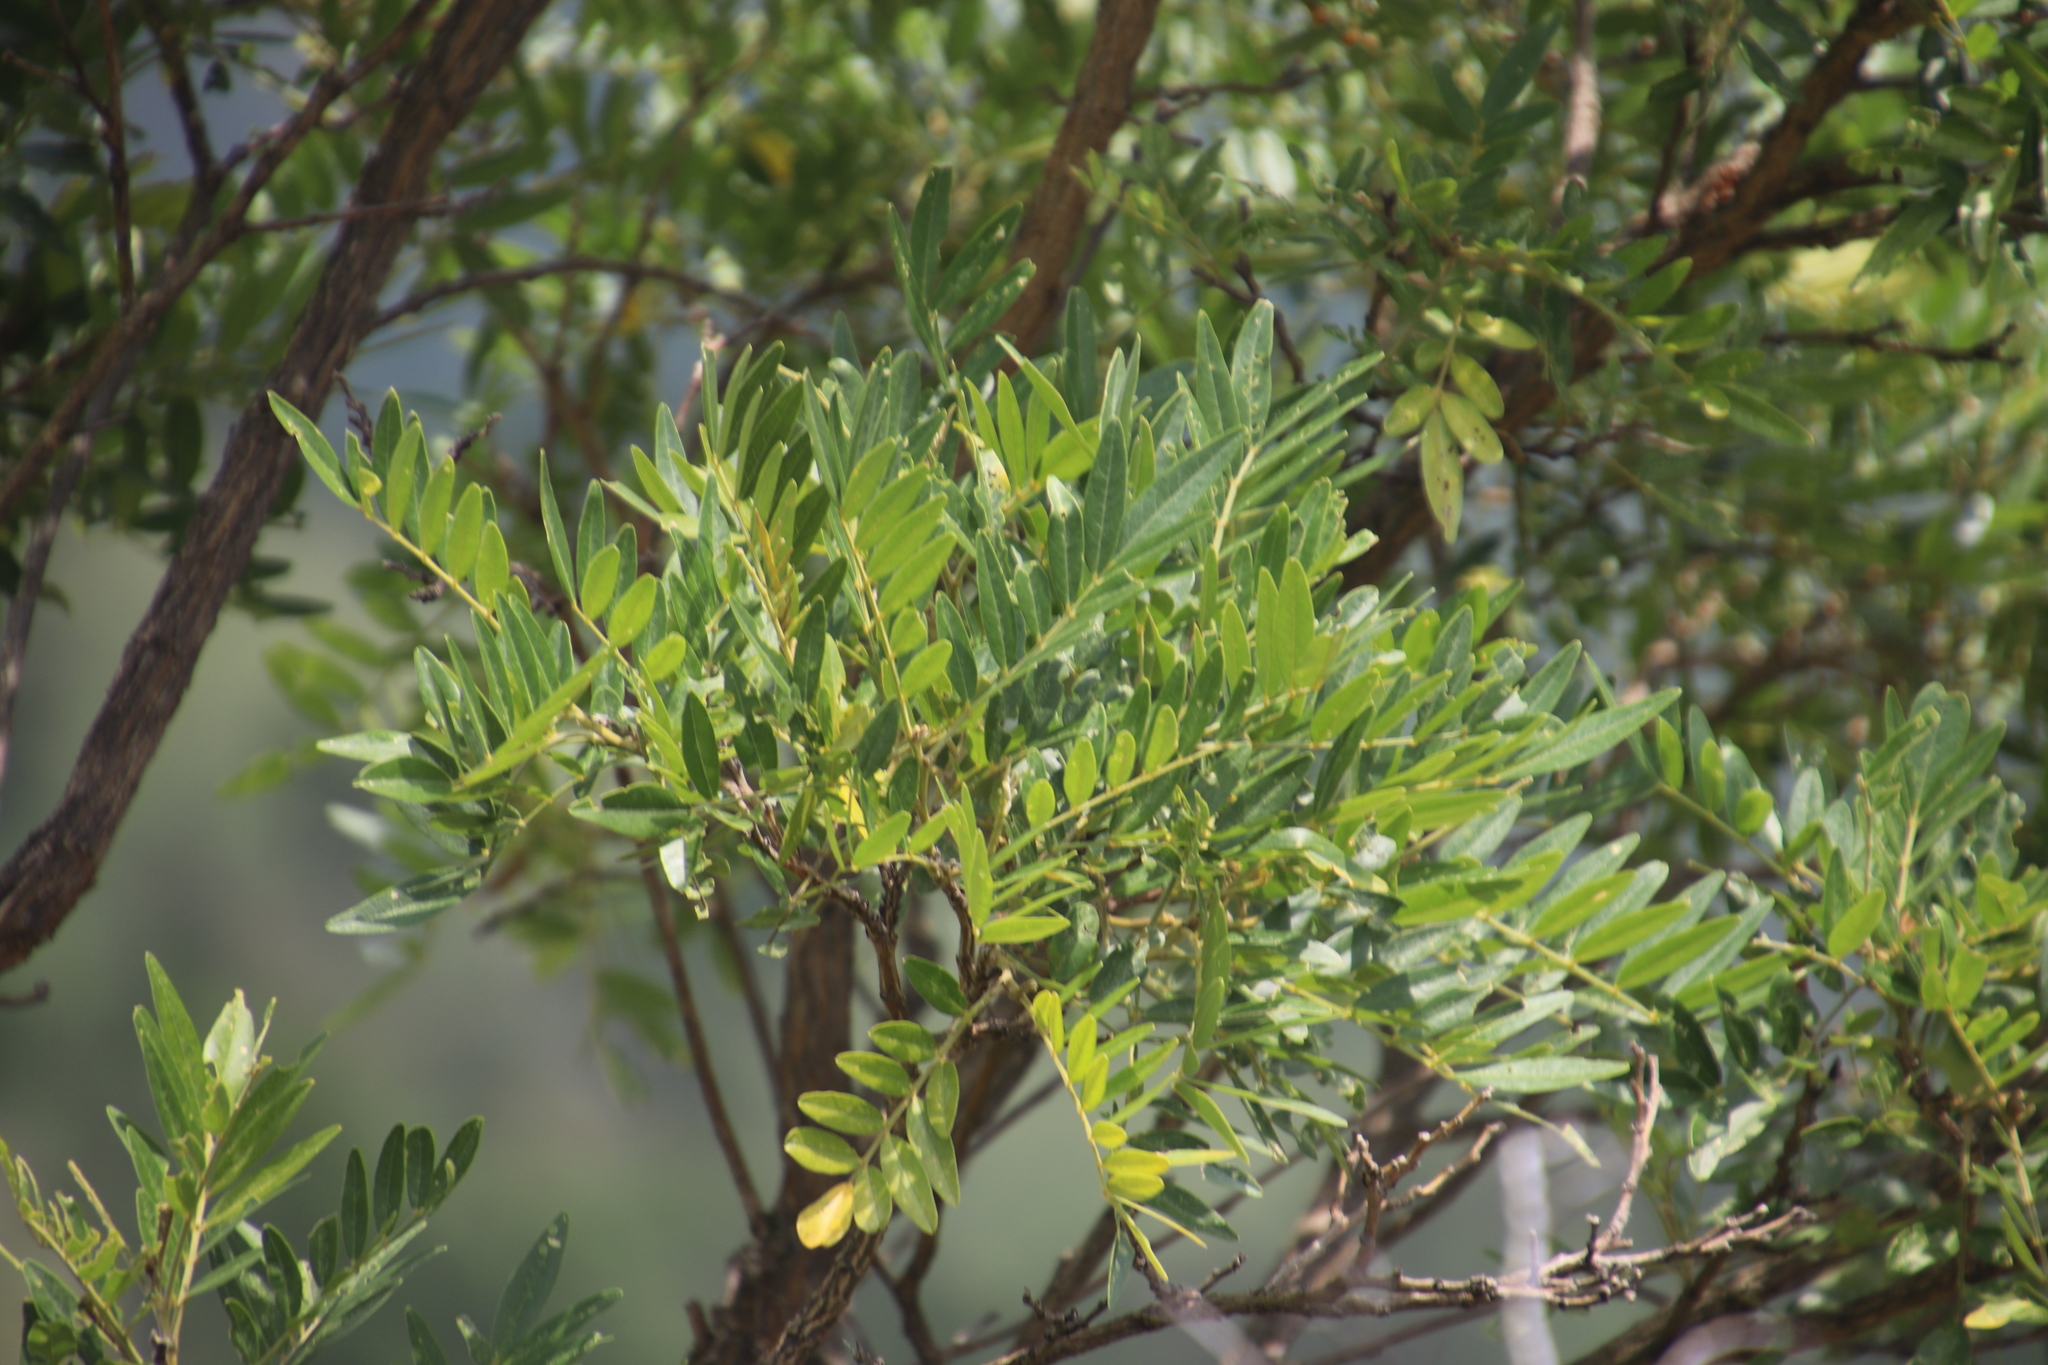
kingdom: Plantae
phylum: Tracheophyta
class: Magnoliopsida
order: Fabales
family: Fabaceae
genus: Mundulea
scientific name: Mundulea sericea
